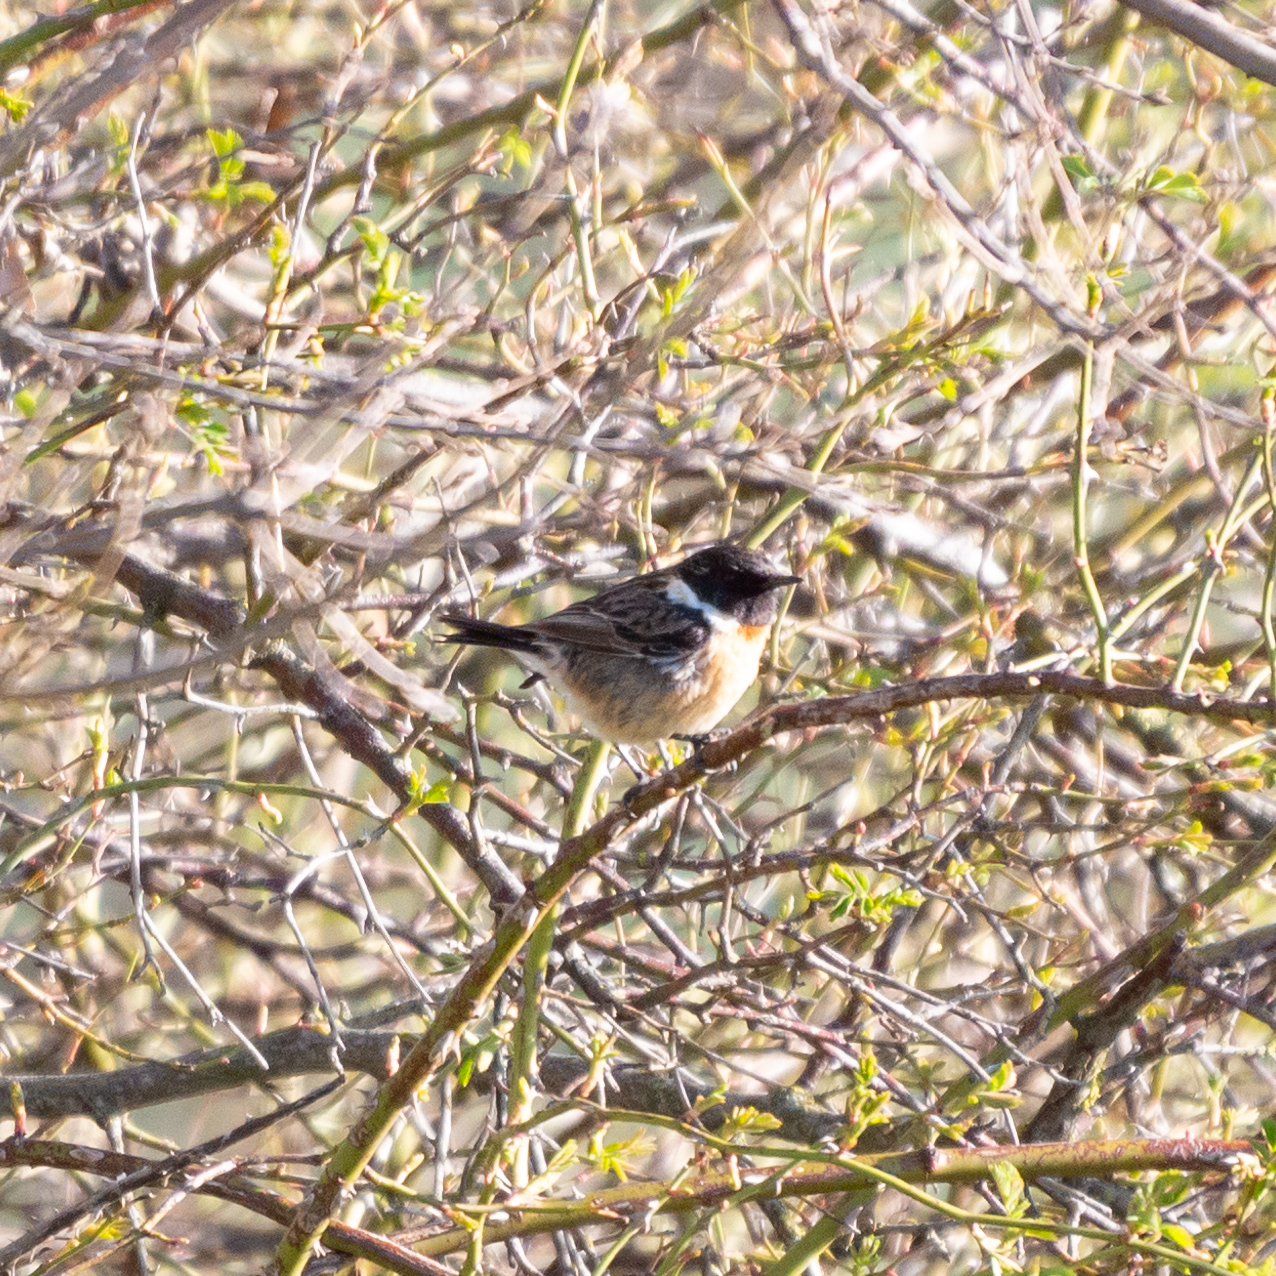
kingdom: Animalia
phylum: Chordata
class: Aves
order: Passeriformes
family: Muscicapidae
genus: Saxicola
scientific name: Saxicola rubicola
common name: European stonechat
